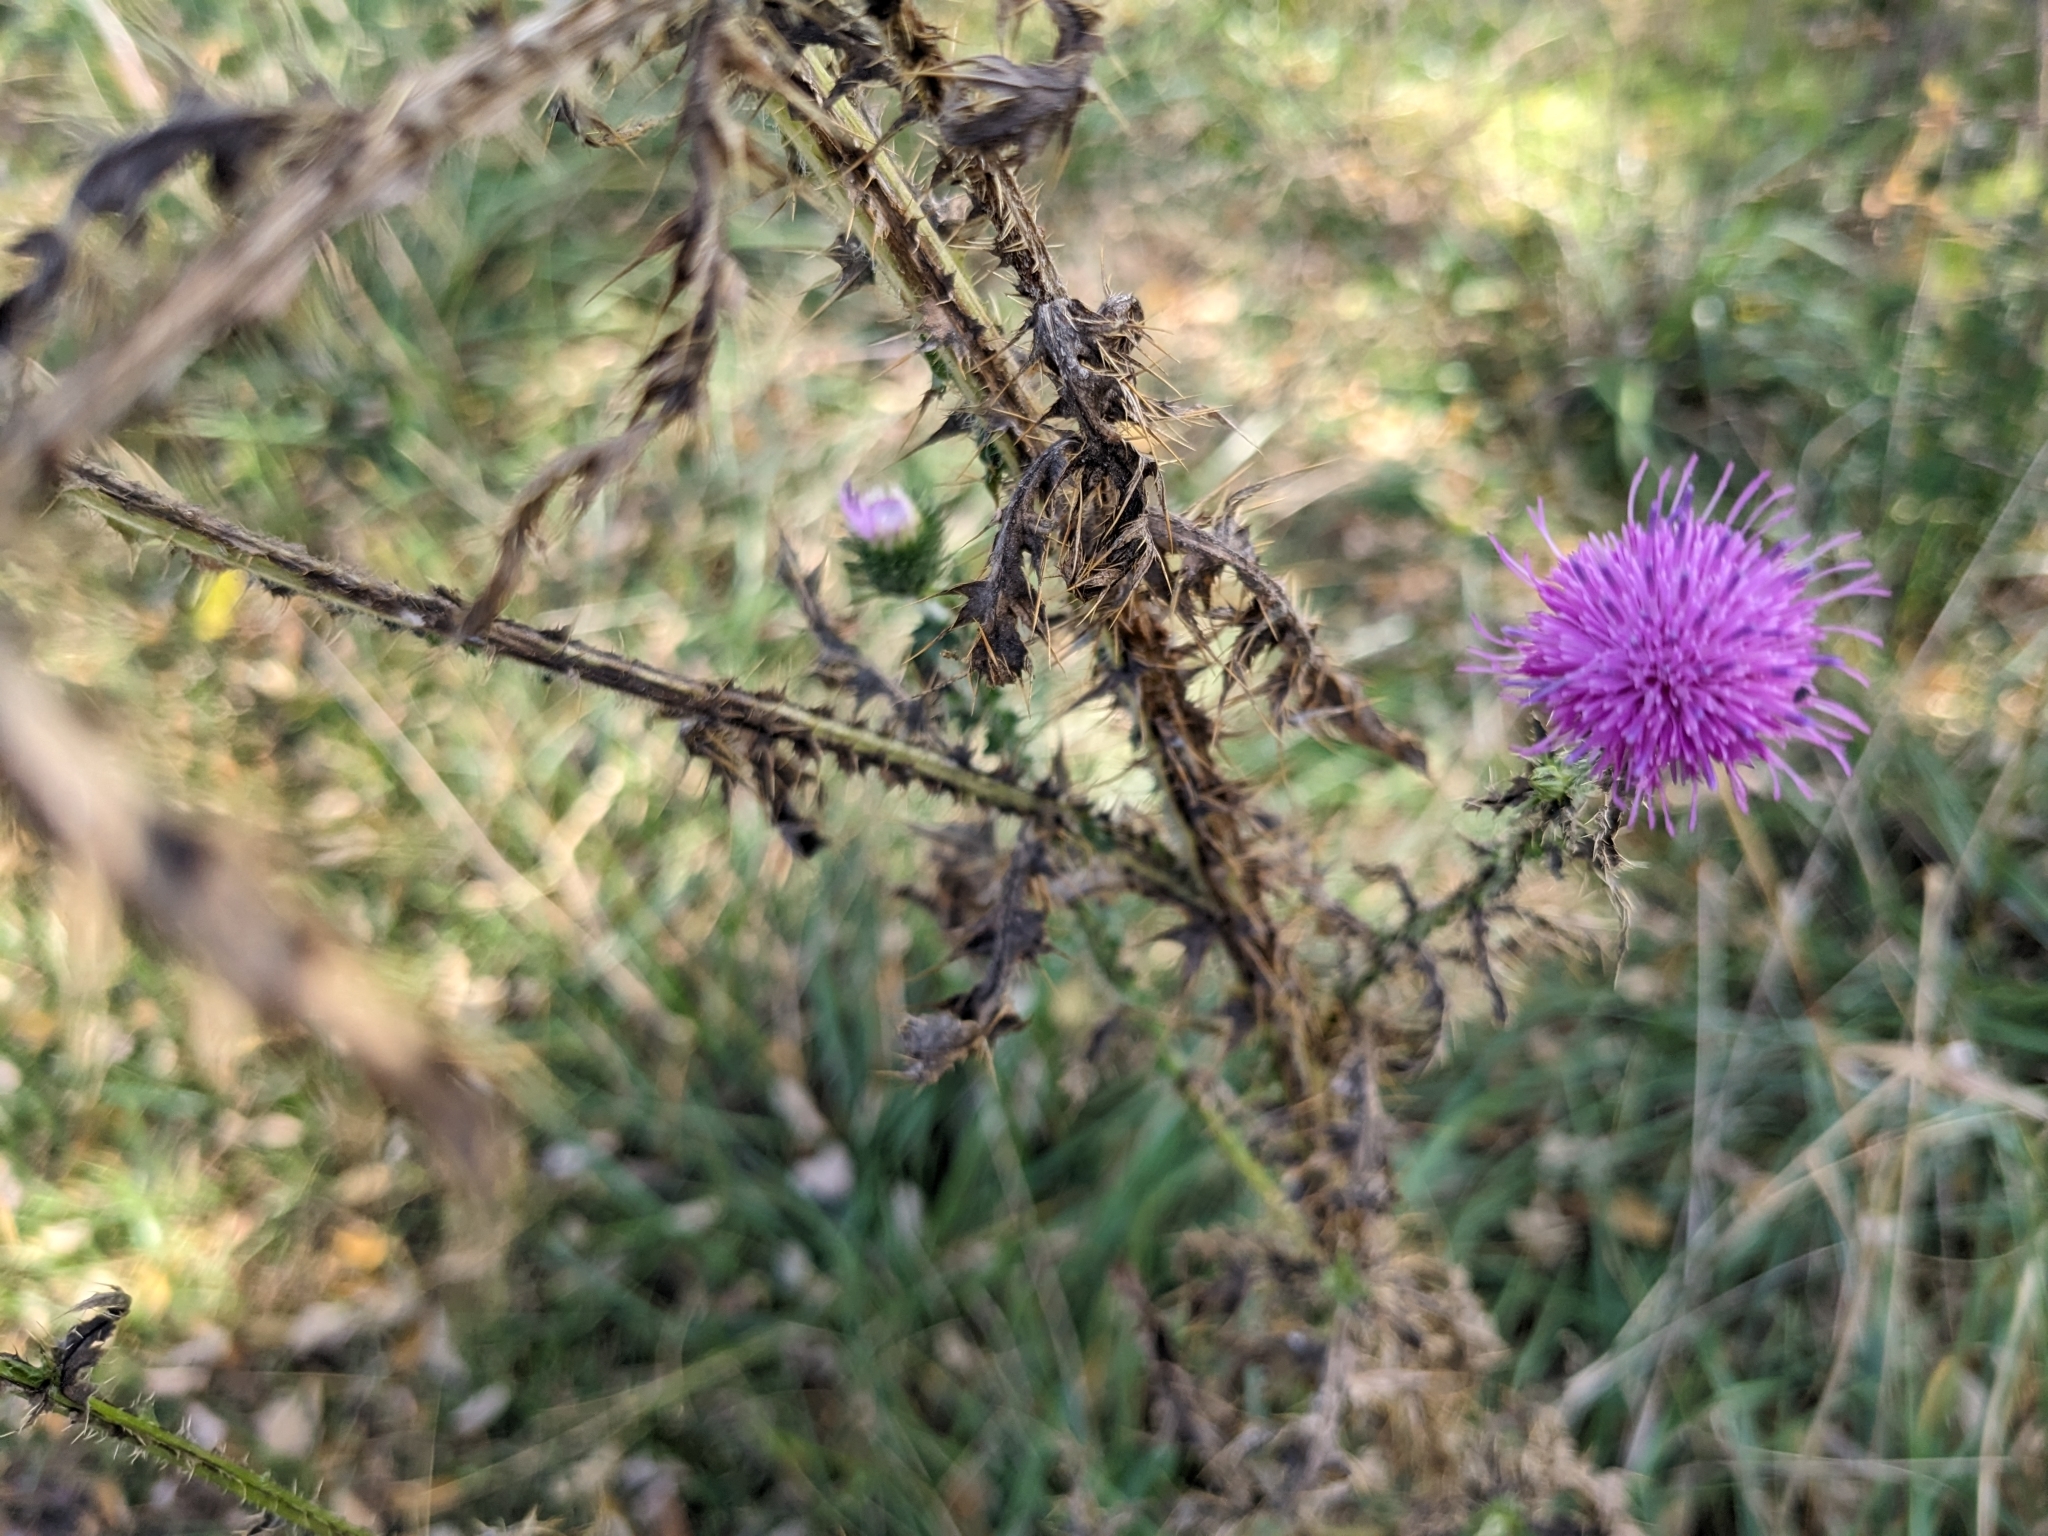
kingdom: Plantae
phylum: Tracheophyta
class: Magnoliopsida
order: Asterales
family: Asteraceae
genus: Carduus
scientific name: Carduus acanthoides
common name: Plumeless thistle
